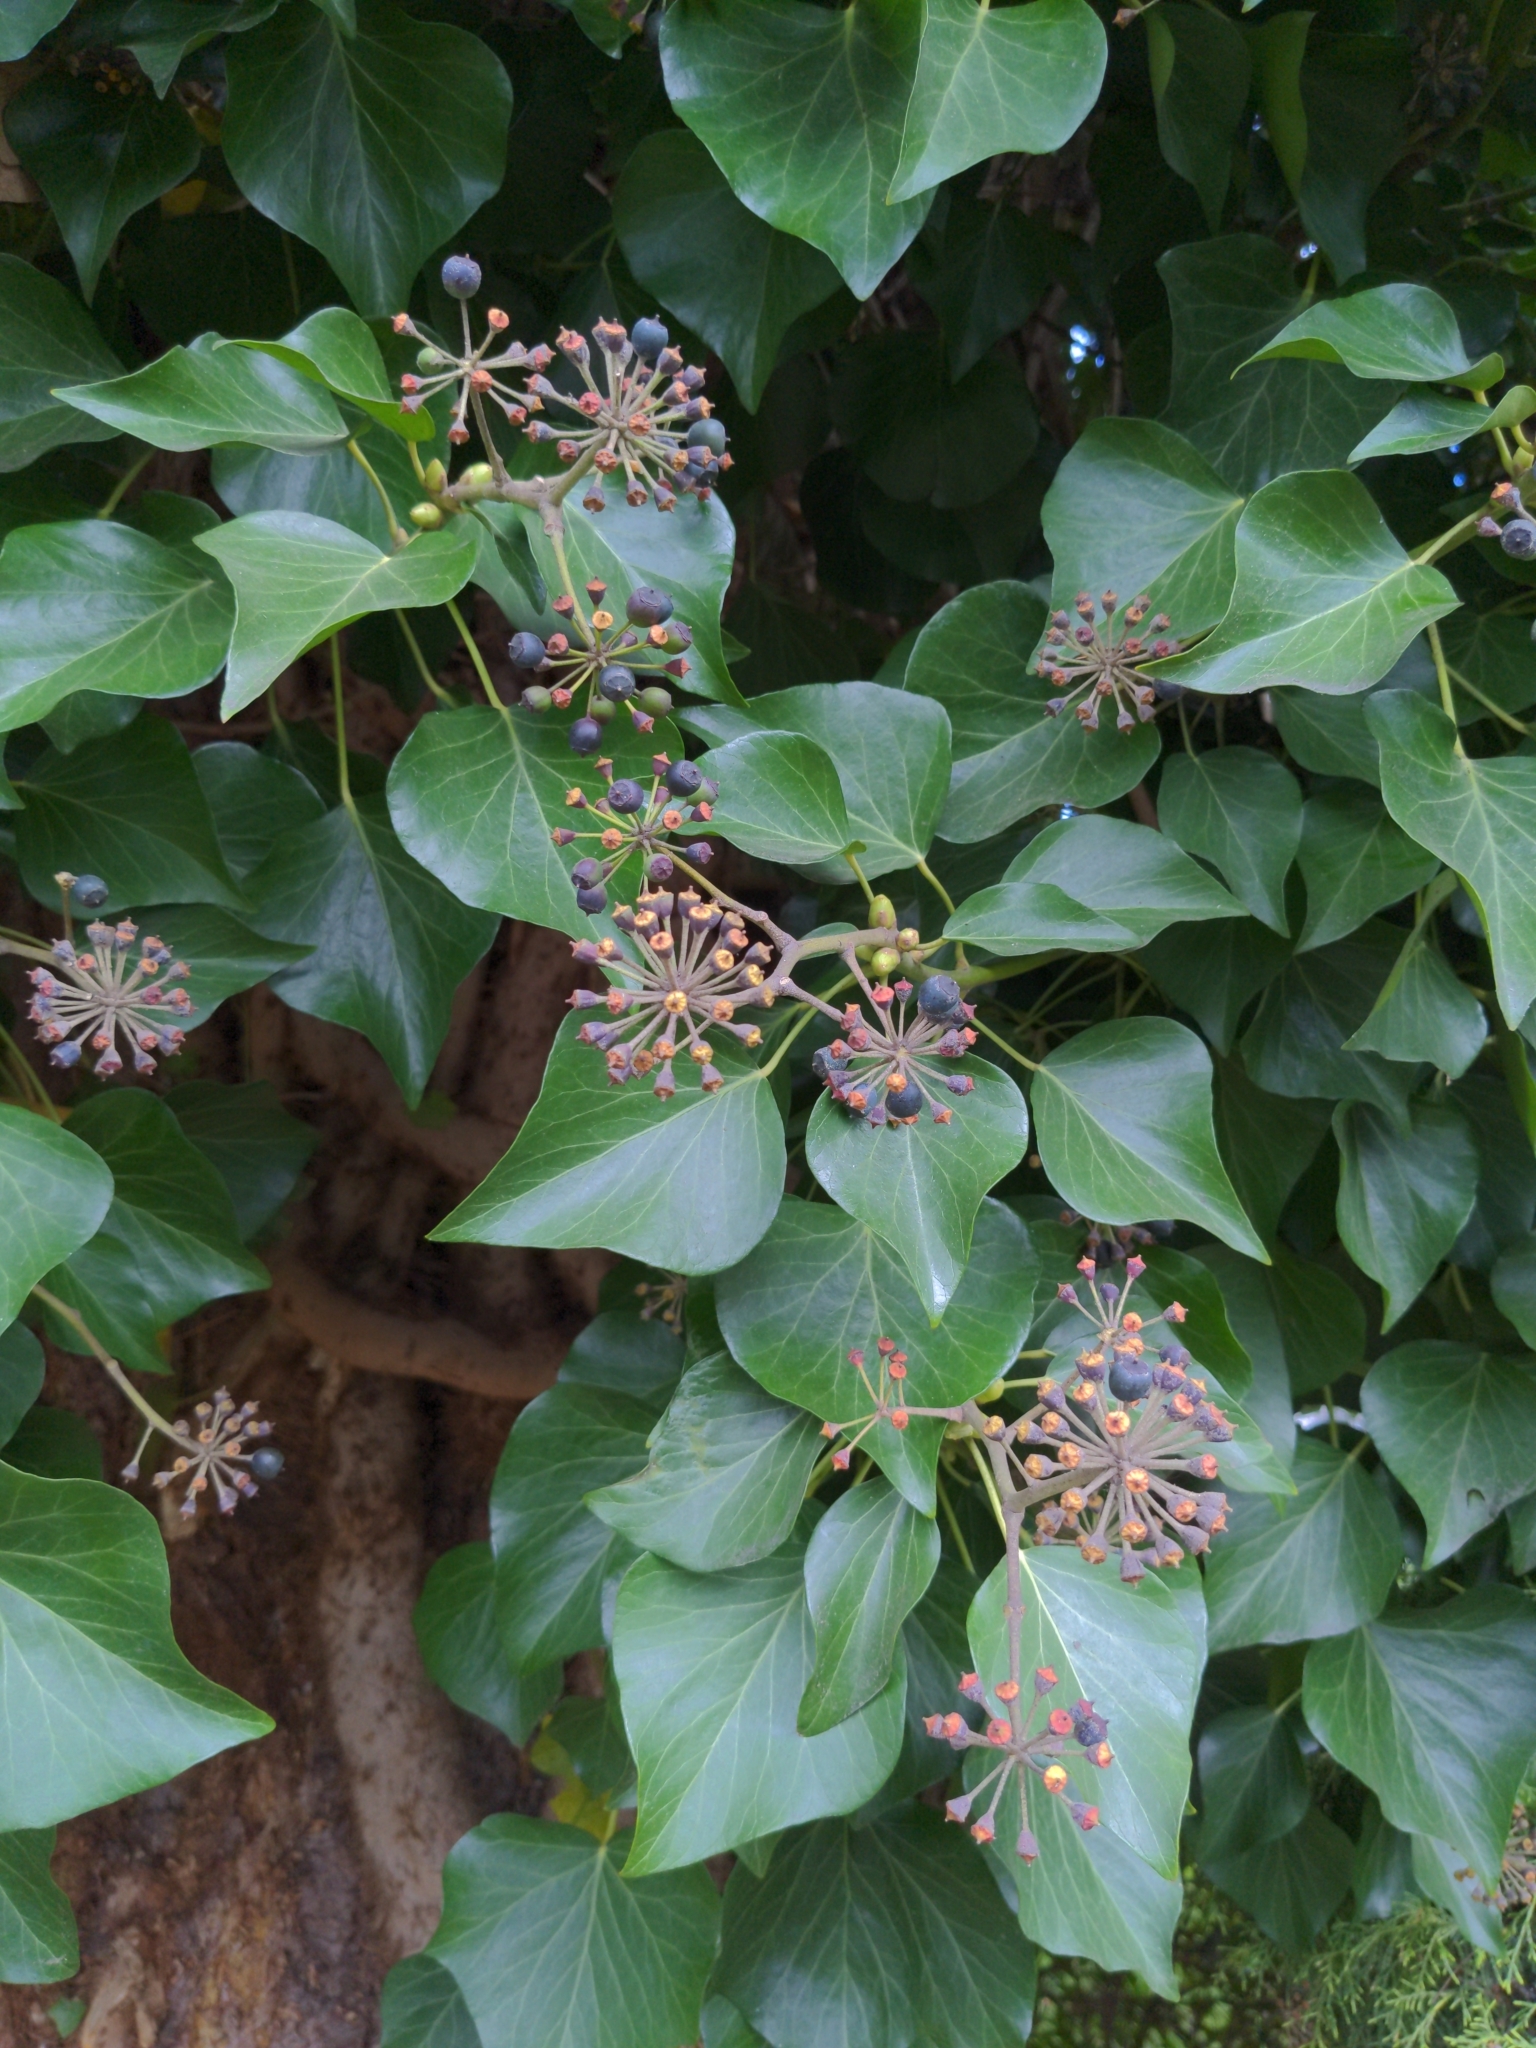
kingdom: Plantae
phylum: Tracheophyta
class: Magnoliopsida
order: Apiales
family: Araliaceae
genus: Hedera
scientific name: Hedera helix
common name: Ivy
